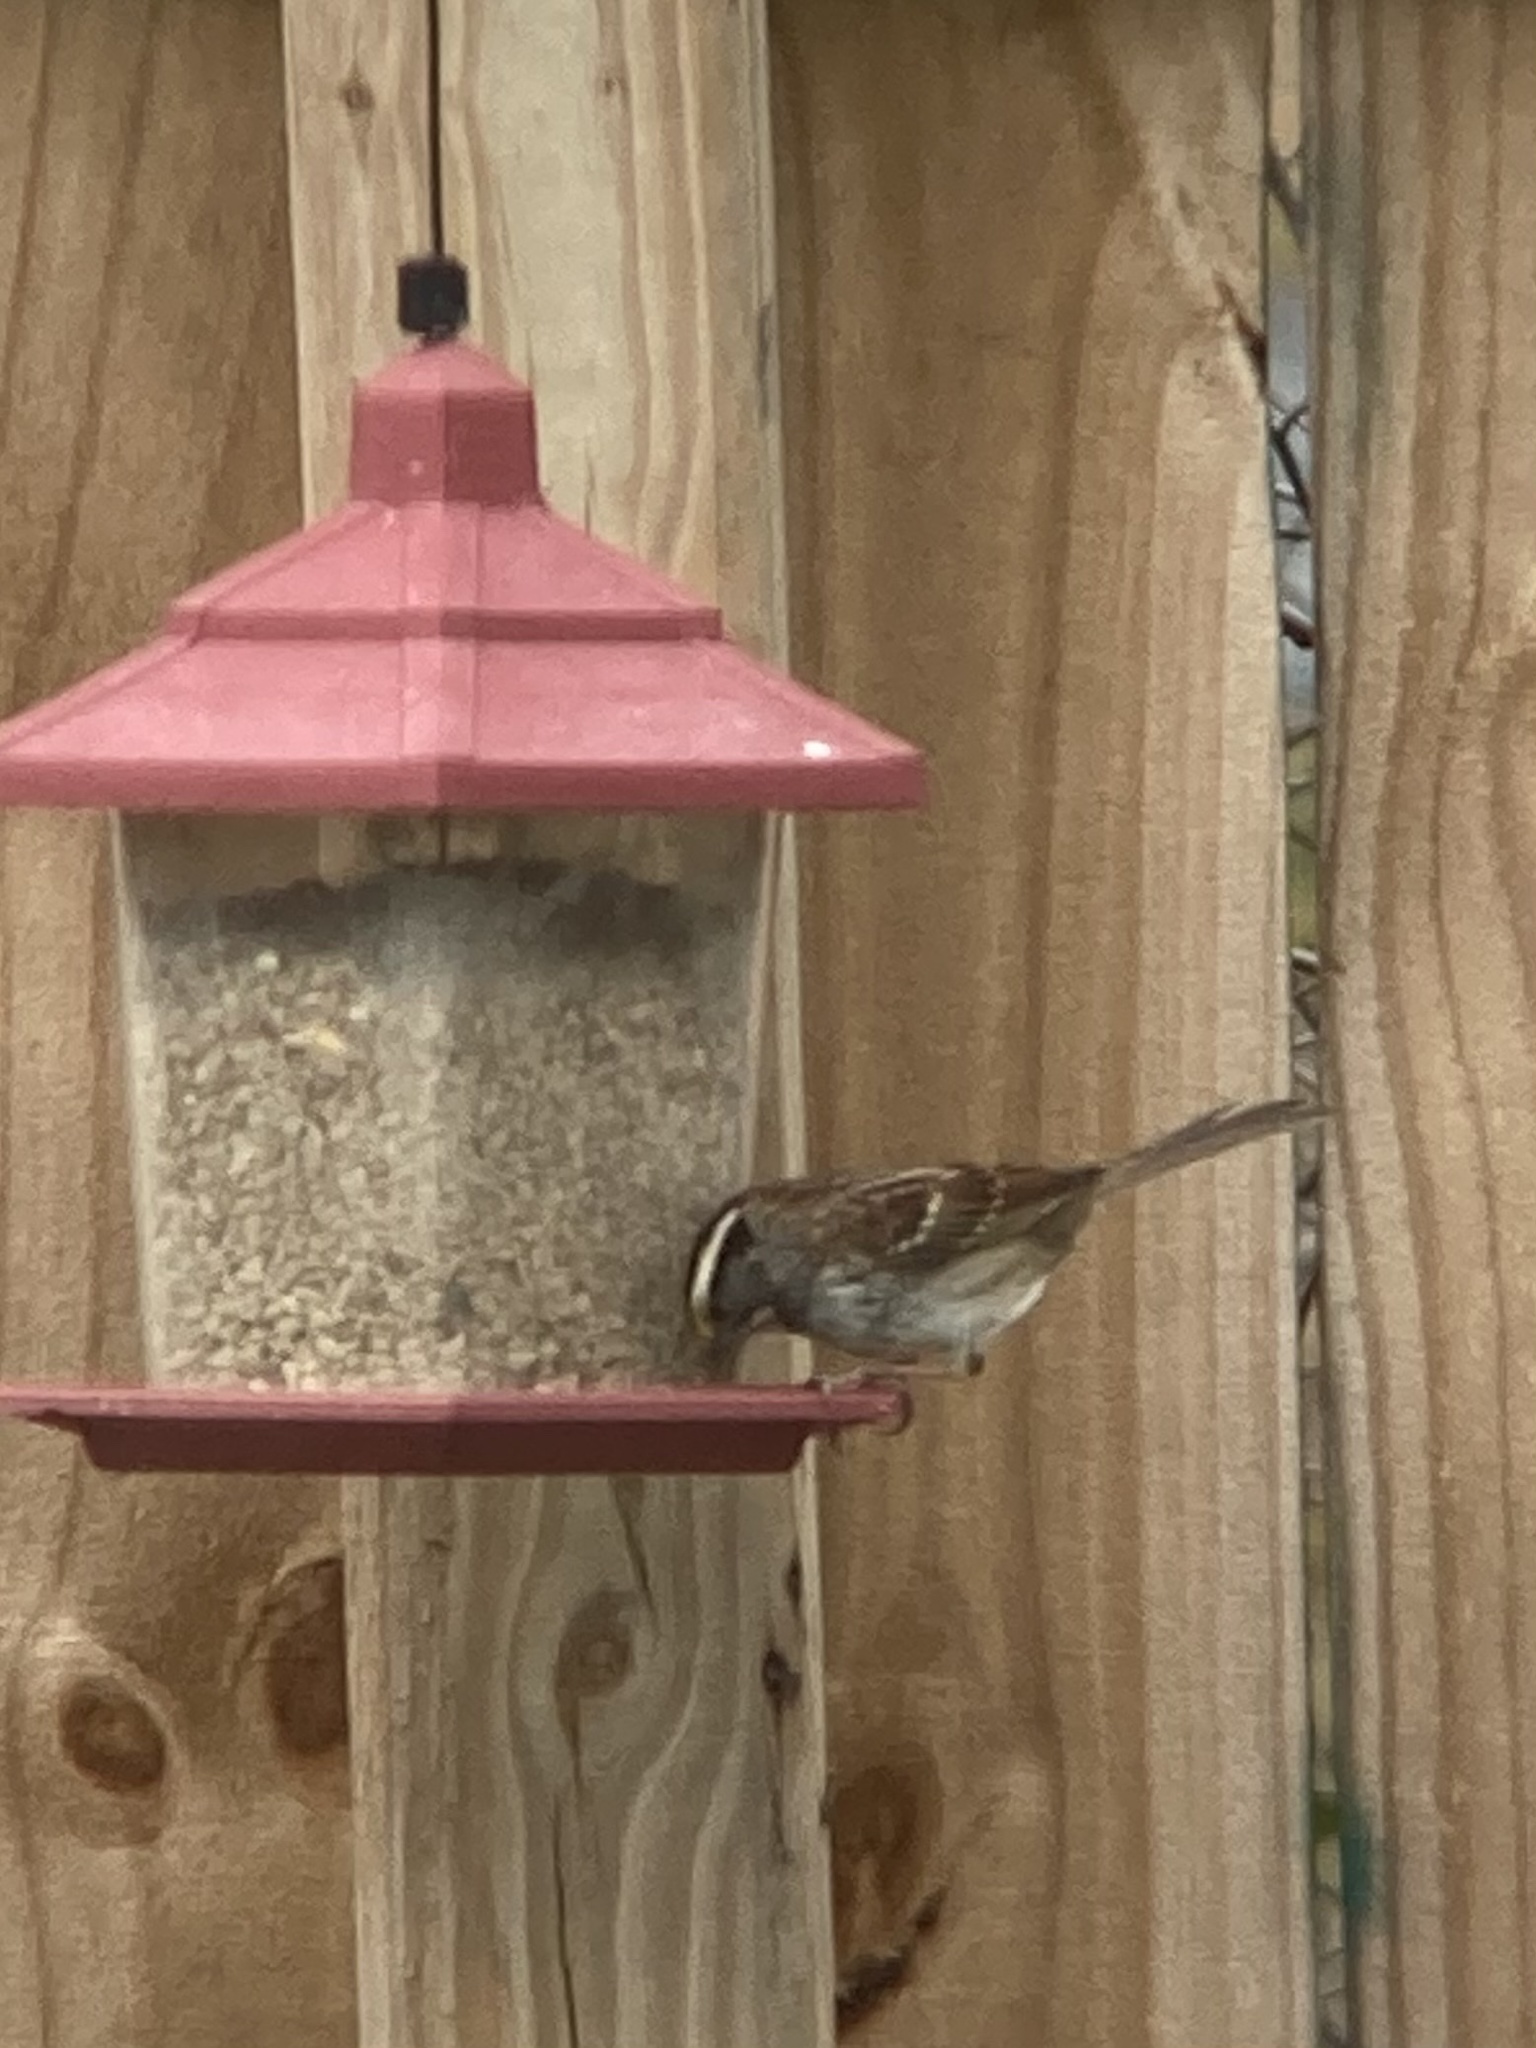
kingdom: Animalia
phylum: Chordata
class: Aves
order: Passeriformes
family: Passerellidae
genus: Zonotrichia
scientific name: Zonotrichia albicollis
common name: White-throated sparrow
